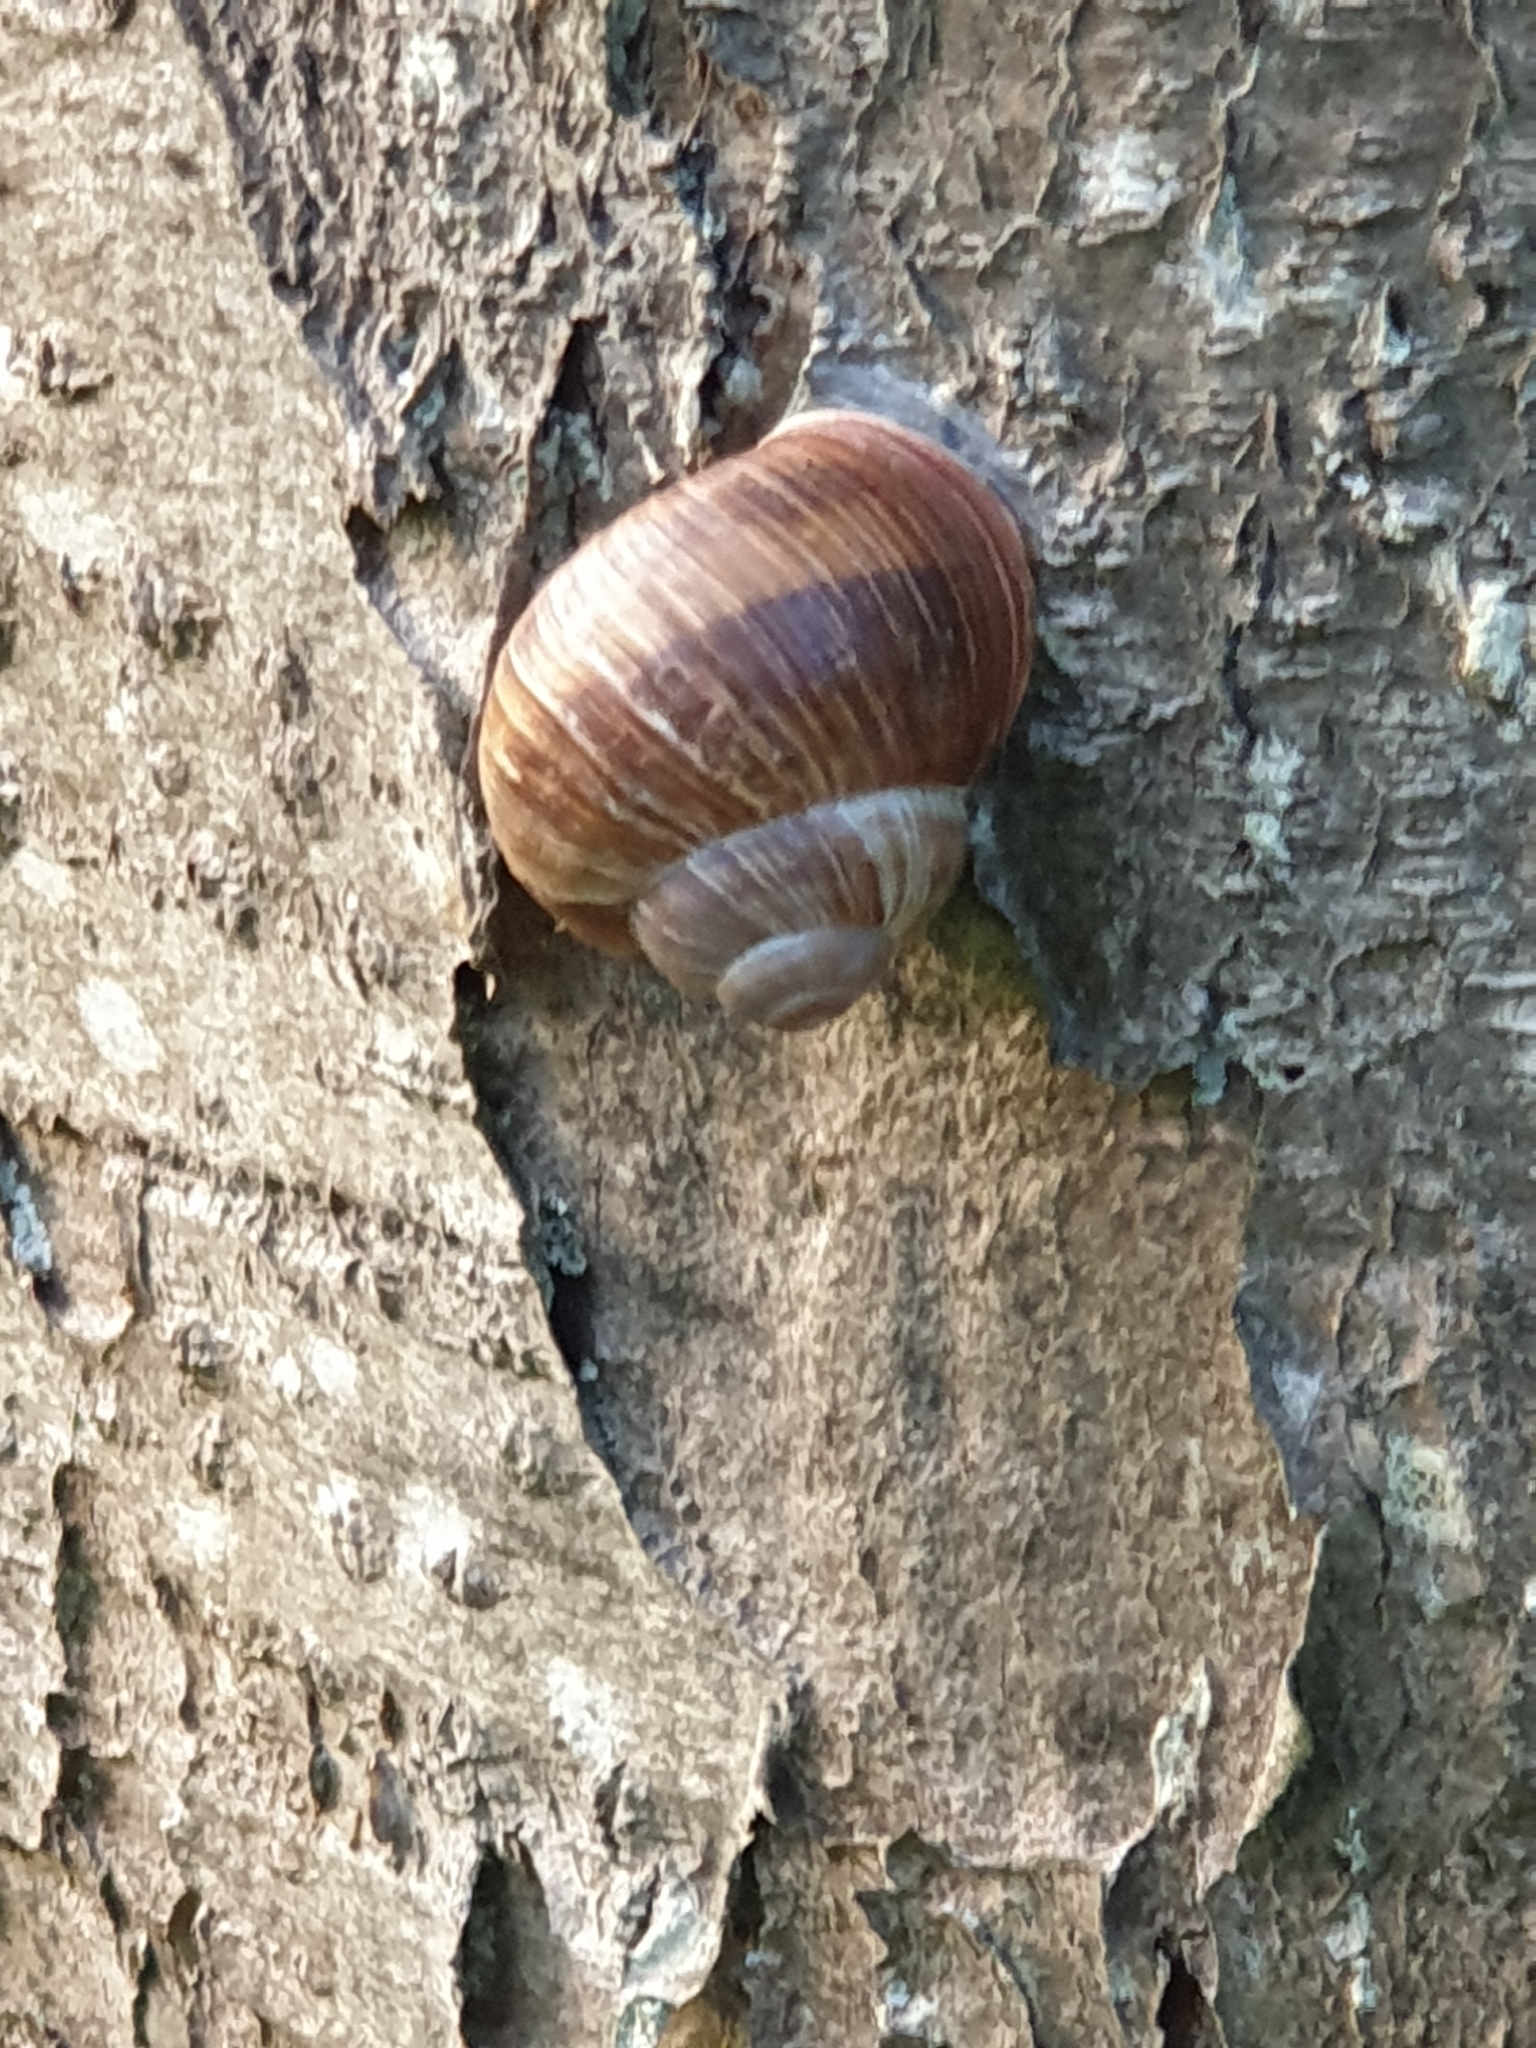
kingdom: Animalia
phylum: Mollusca
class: Gastropoda
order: Stylommatophora
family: Helicidae
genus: Helix
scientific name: Helix pomatia
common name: Roman snail
